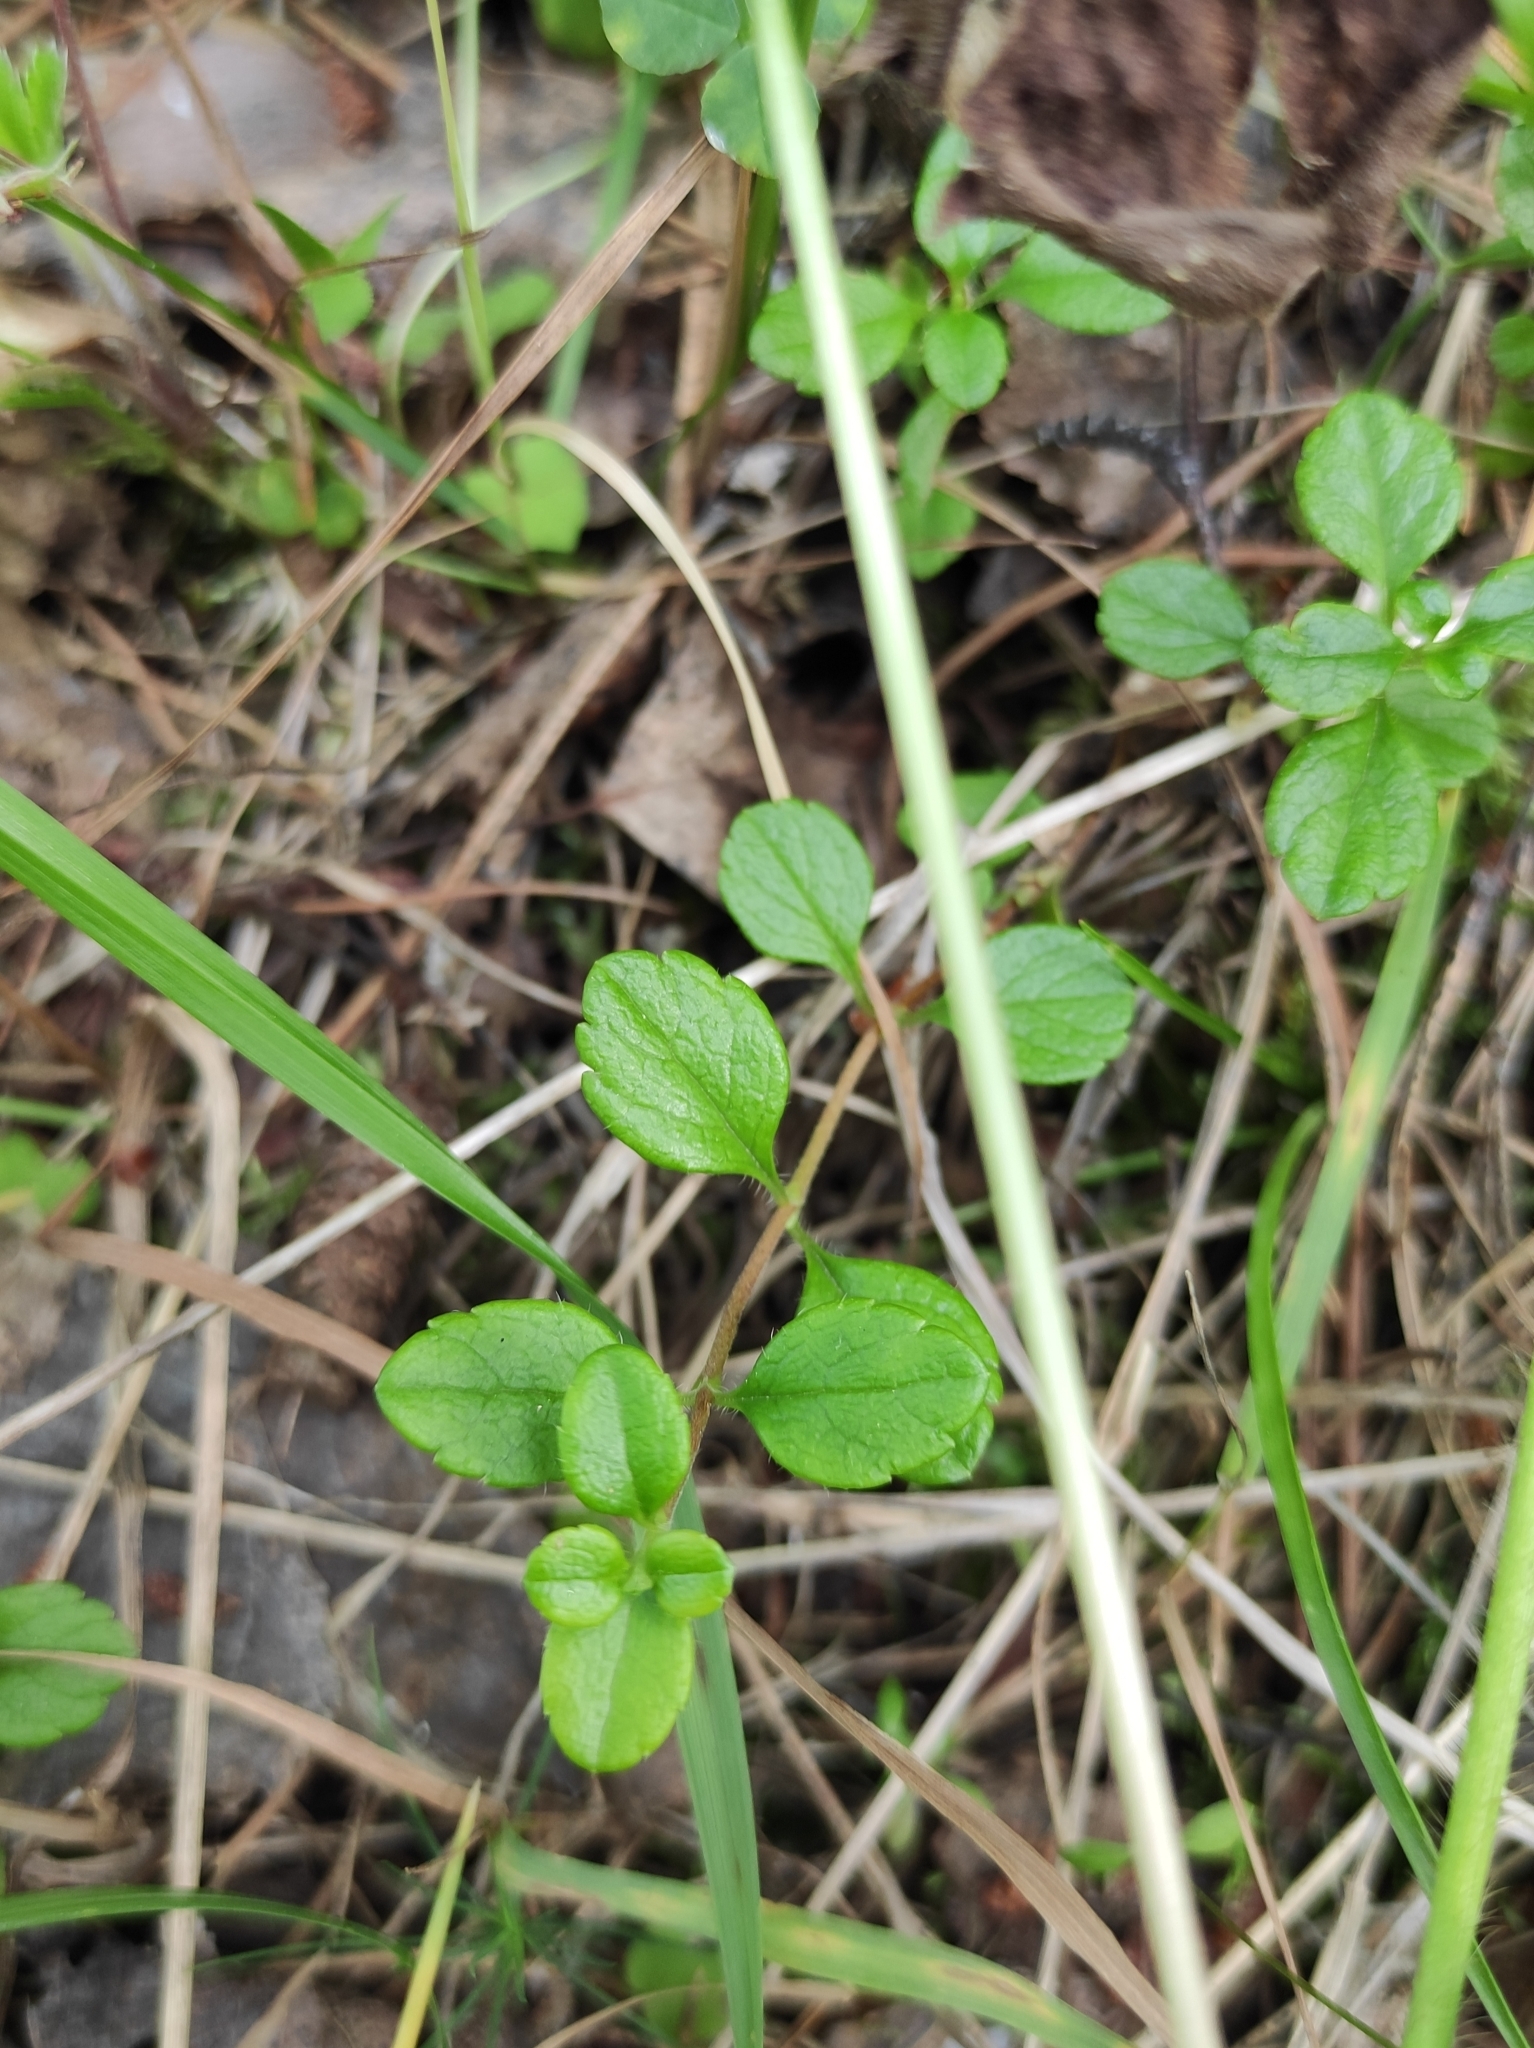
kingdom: Plantae
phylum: Tracheophyta
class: Magnoliopsida
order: Dipsacales
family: Caprifoliaceae
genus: Linnaea
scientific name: Linnaea borealis
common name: Twinflower
